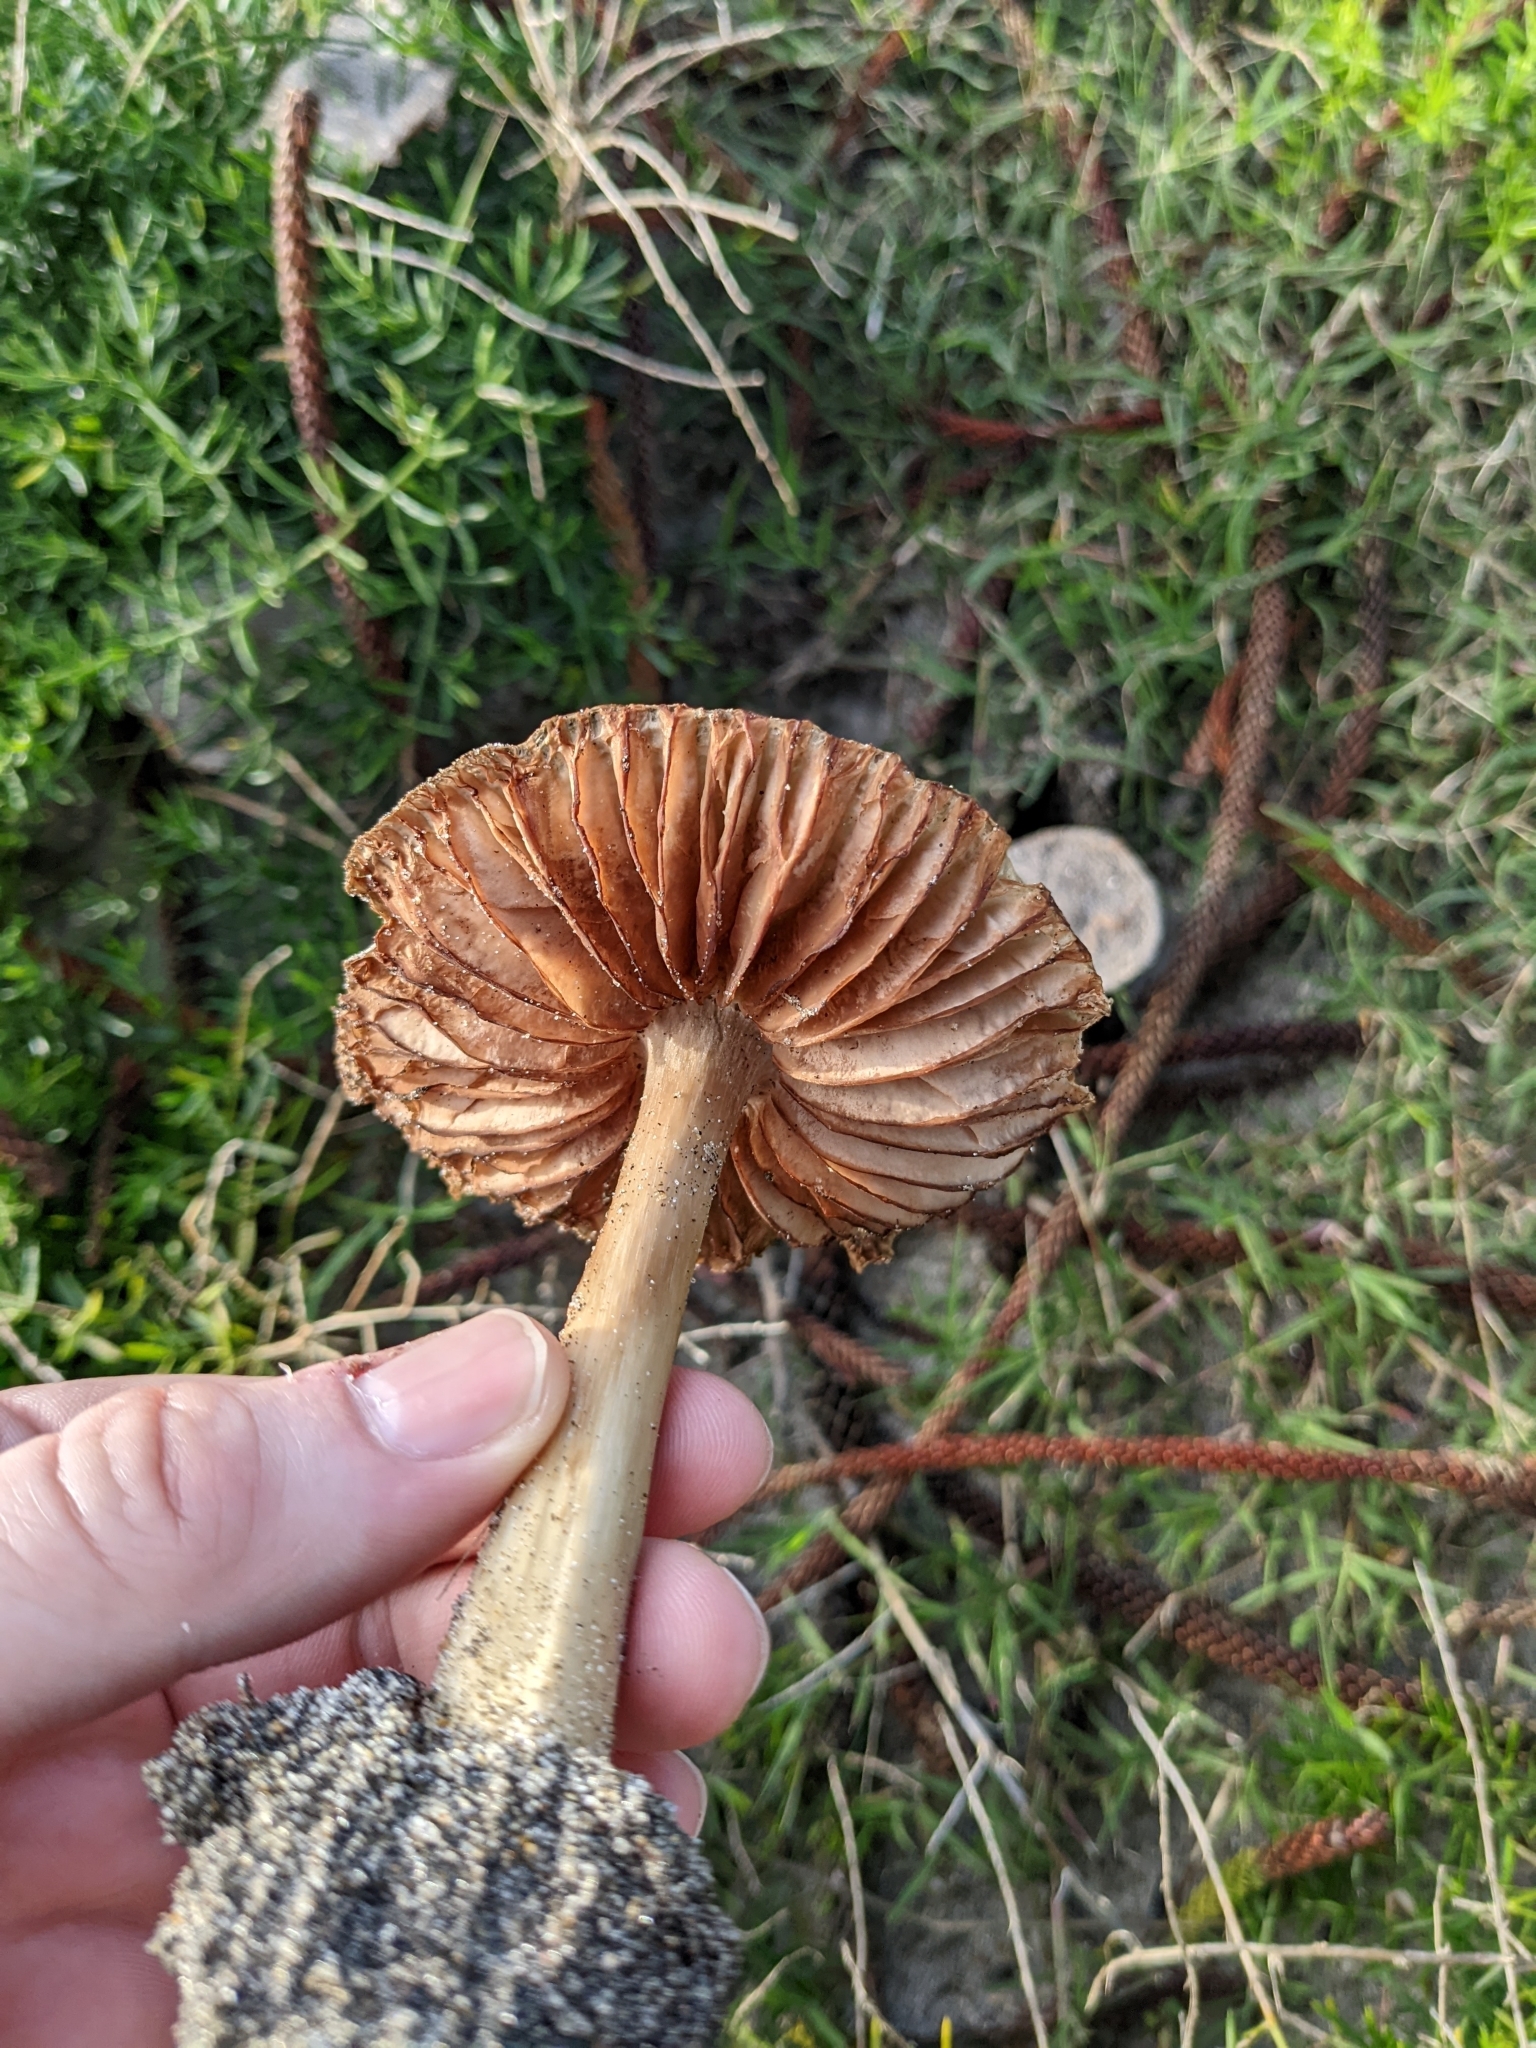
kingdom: Fungi
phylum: Basidiomycota
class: Agaricomycetes
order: Agaricales
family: Pluteaceae
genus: Volvopluteus
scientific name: Volvopluteus gloiocephalus
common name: Stubble rosegill
